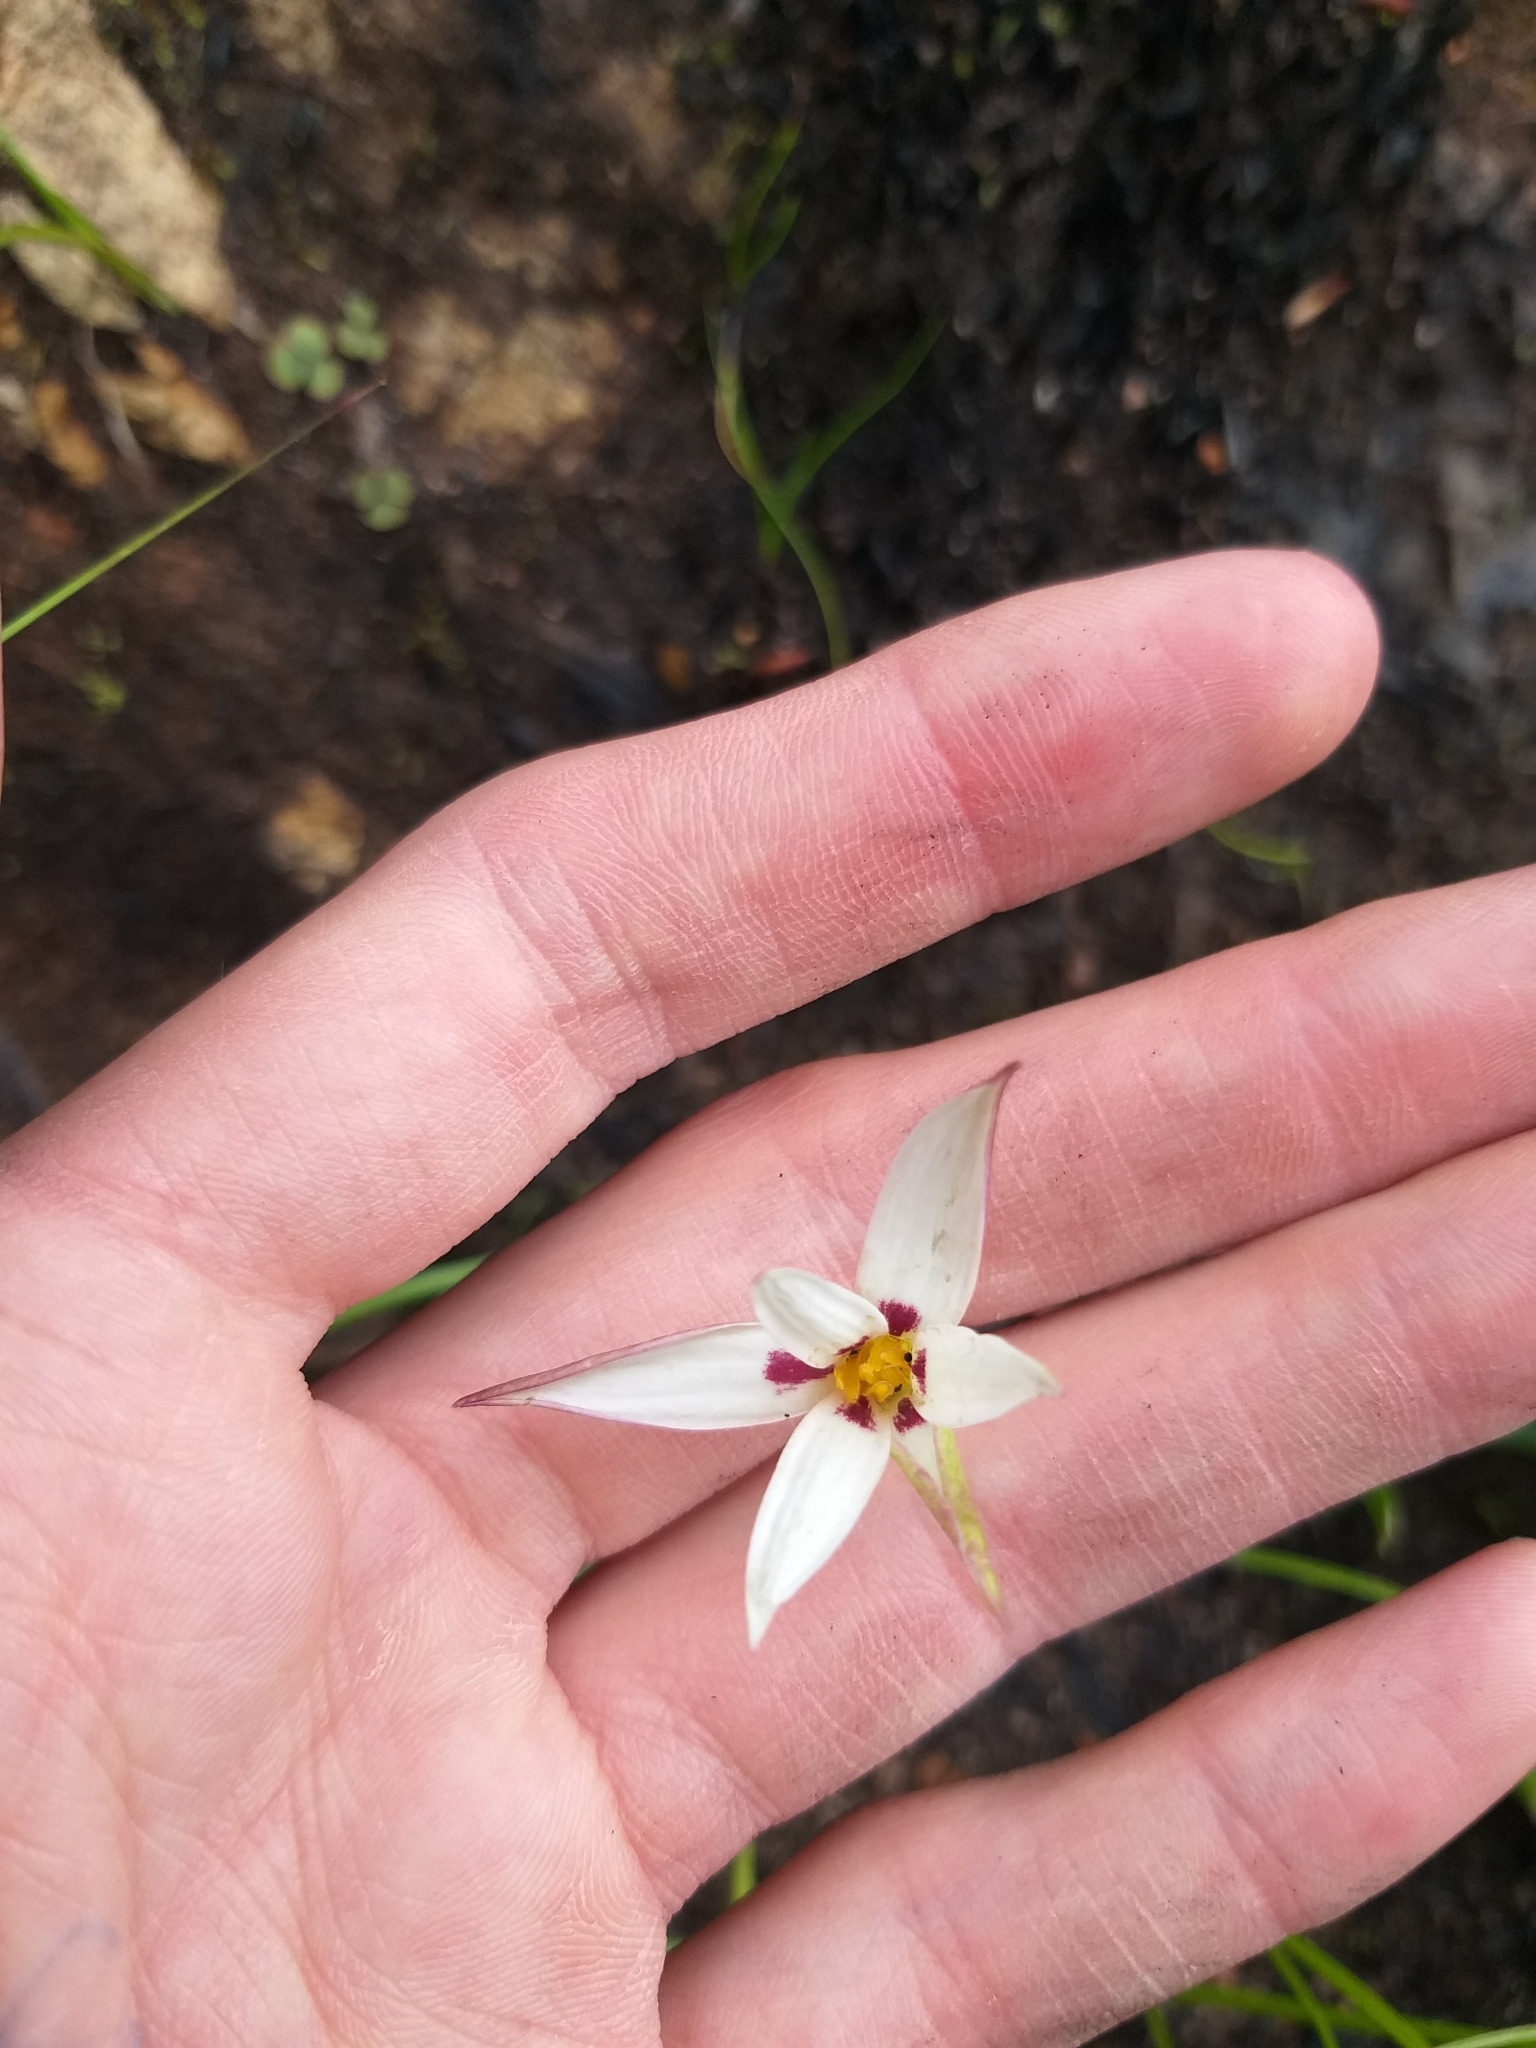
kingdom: Plantae
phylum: Tracheophyta
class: Liliopsida
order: Asparagales
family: Hypoxidaceae
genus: Pauridia
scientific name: Pauridia capensis
